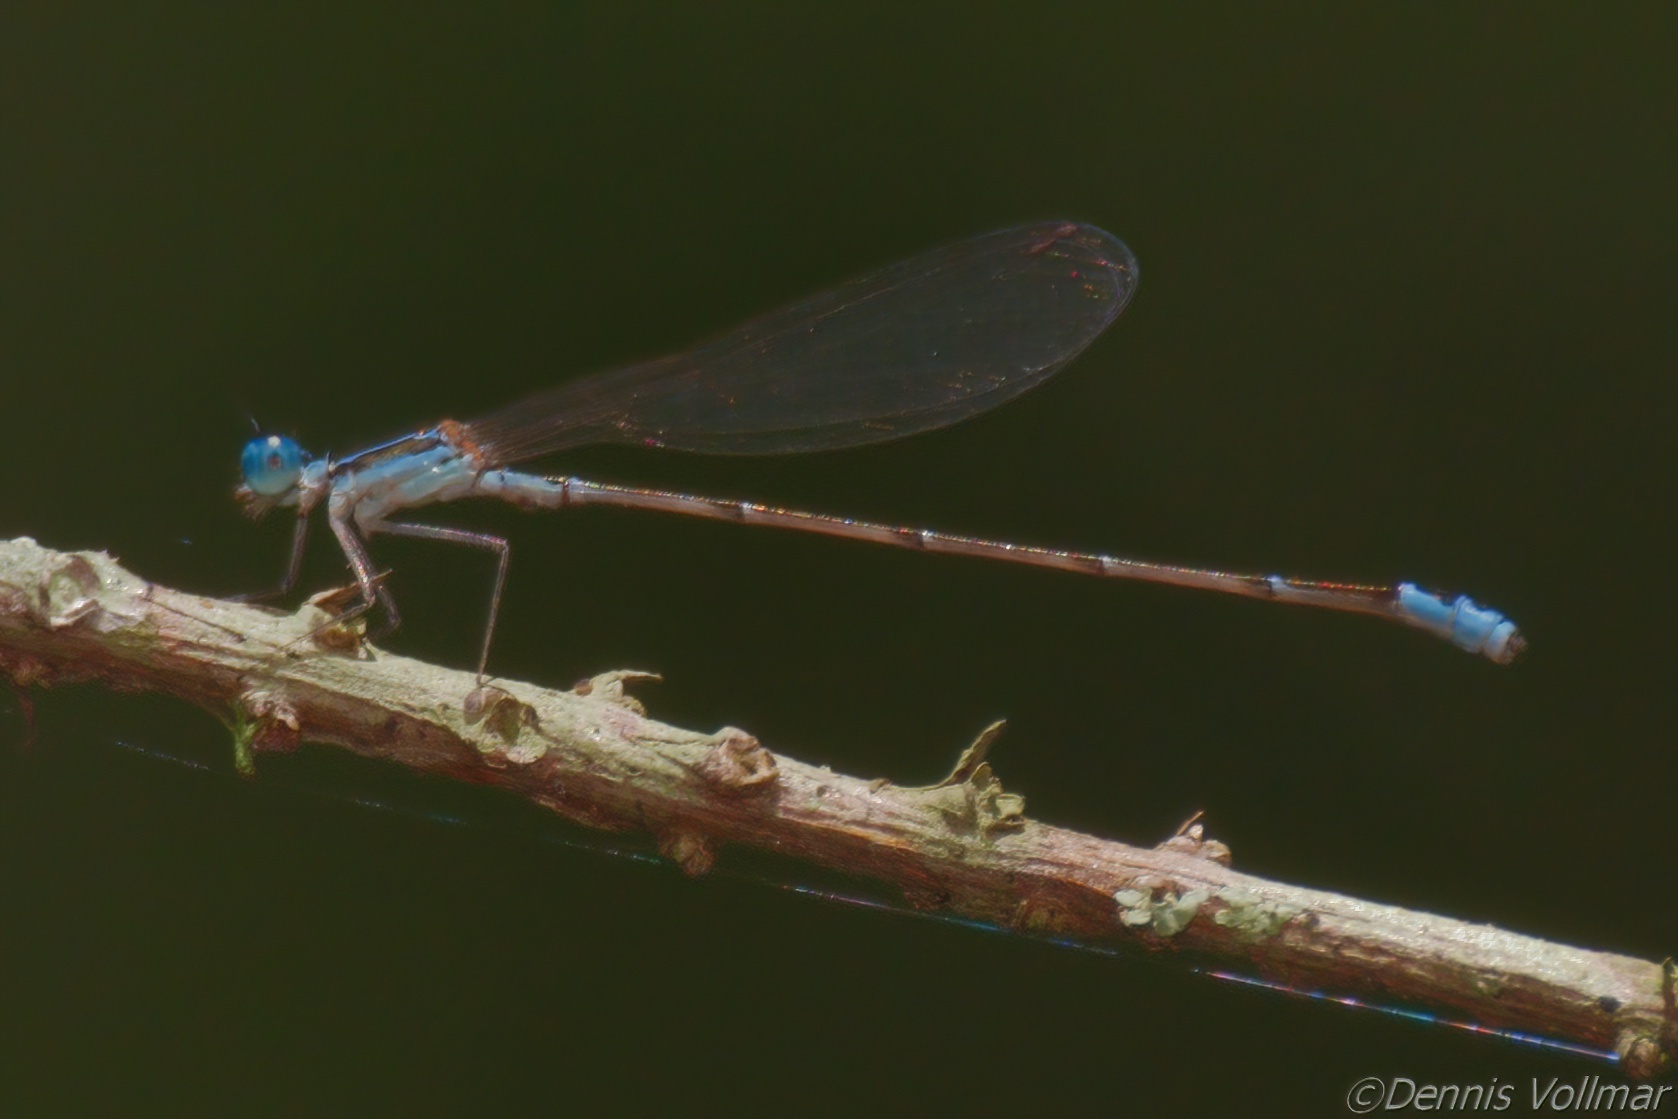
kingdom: Animalia
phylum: Arthropoda
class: Insecta
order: Odonata
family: Coenagrionidae
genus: Nehalennia
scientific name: Nehalennia pallidula
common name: Everglades sprite
